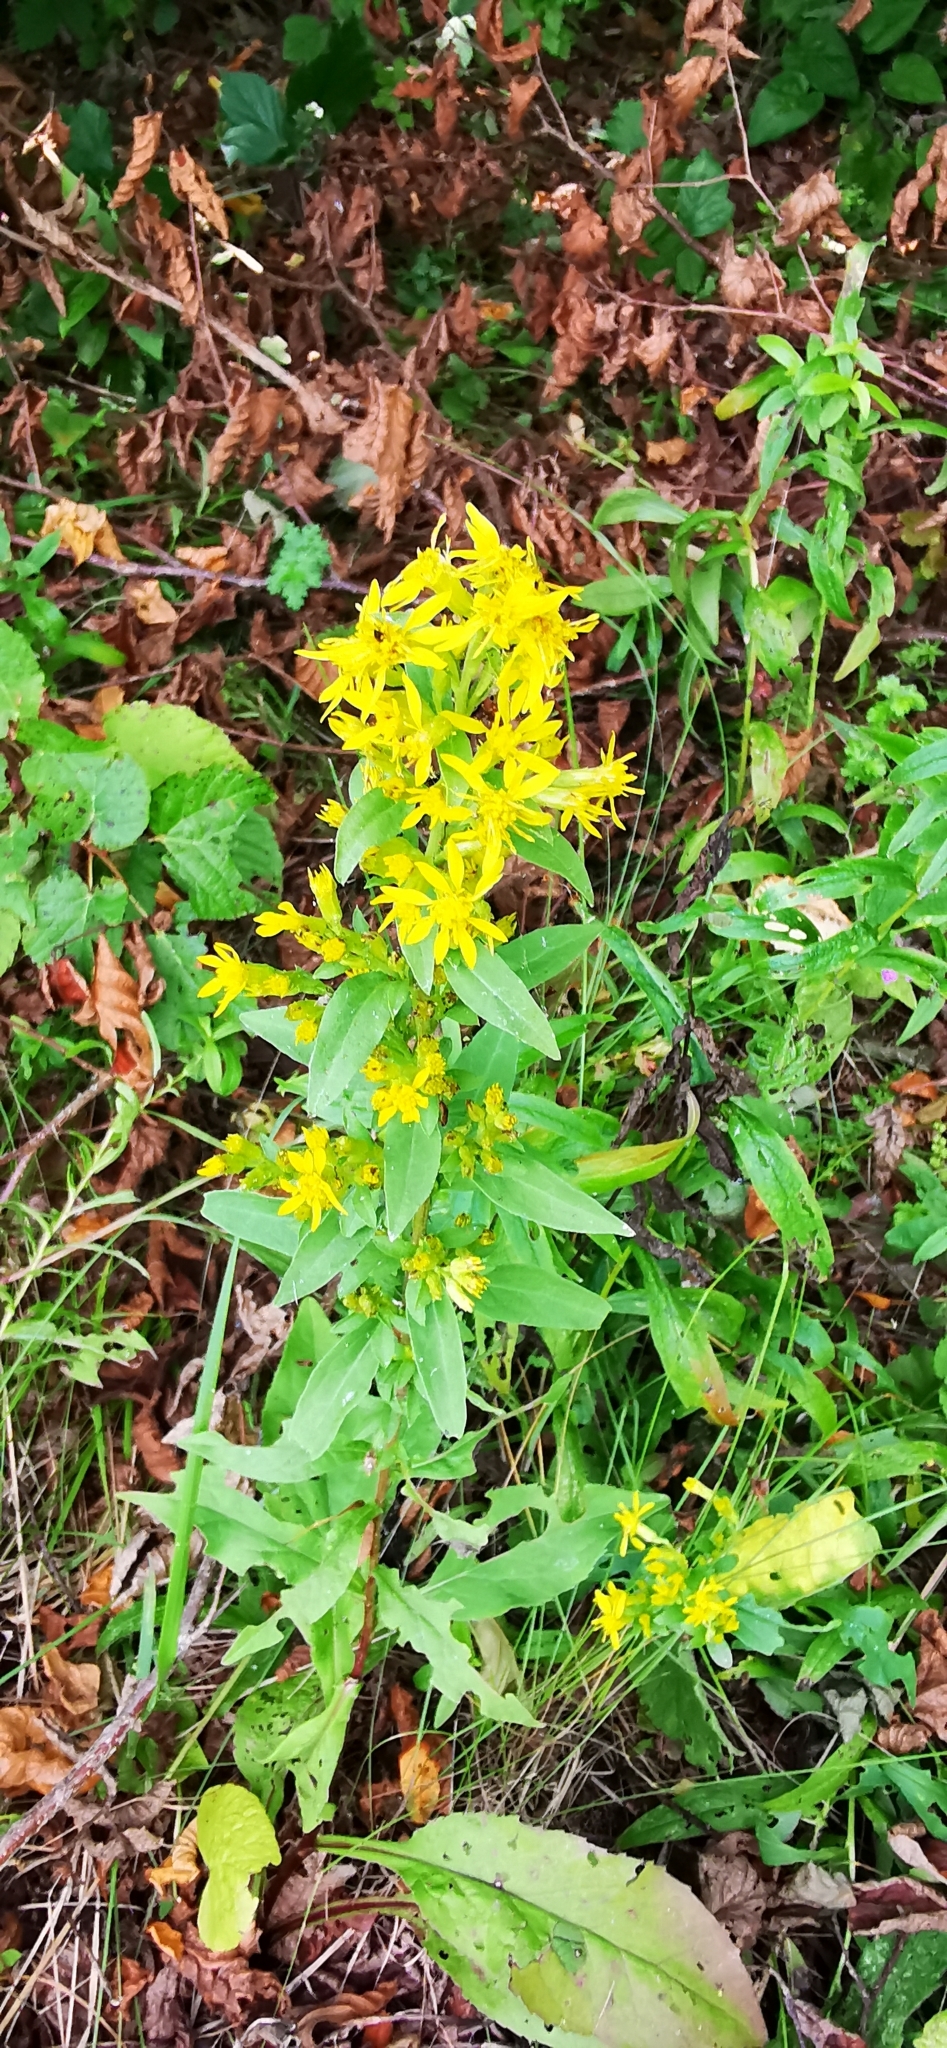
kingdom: Plantae
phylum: Tracheophyta
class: Magnoliopsida
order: Asterales
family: Asteraceae
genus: Solidago
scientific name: Solidago virgaurea
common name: Goldenrod
